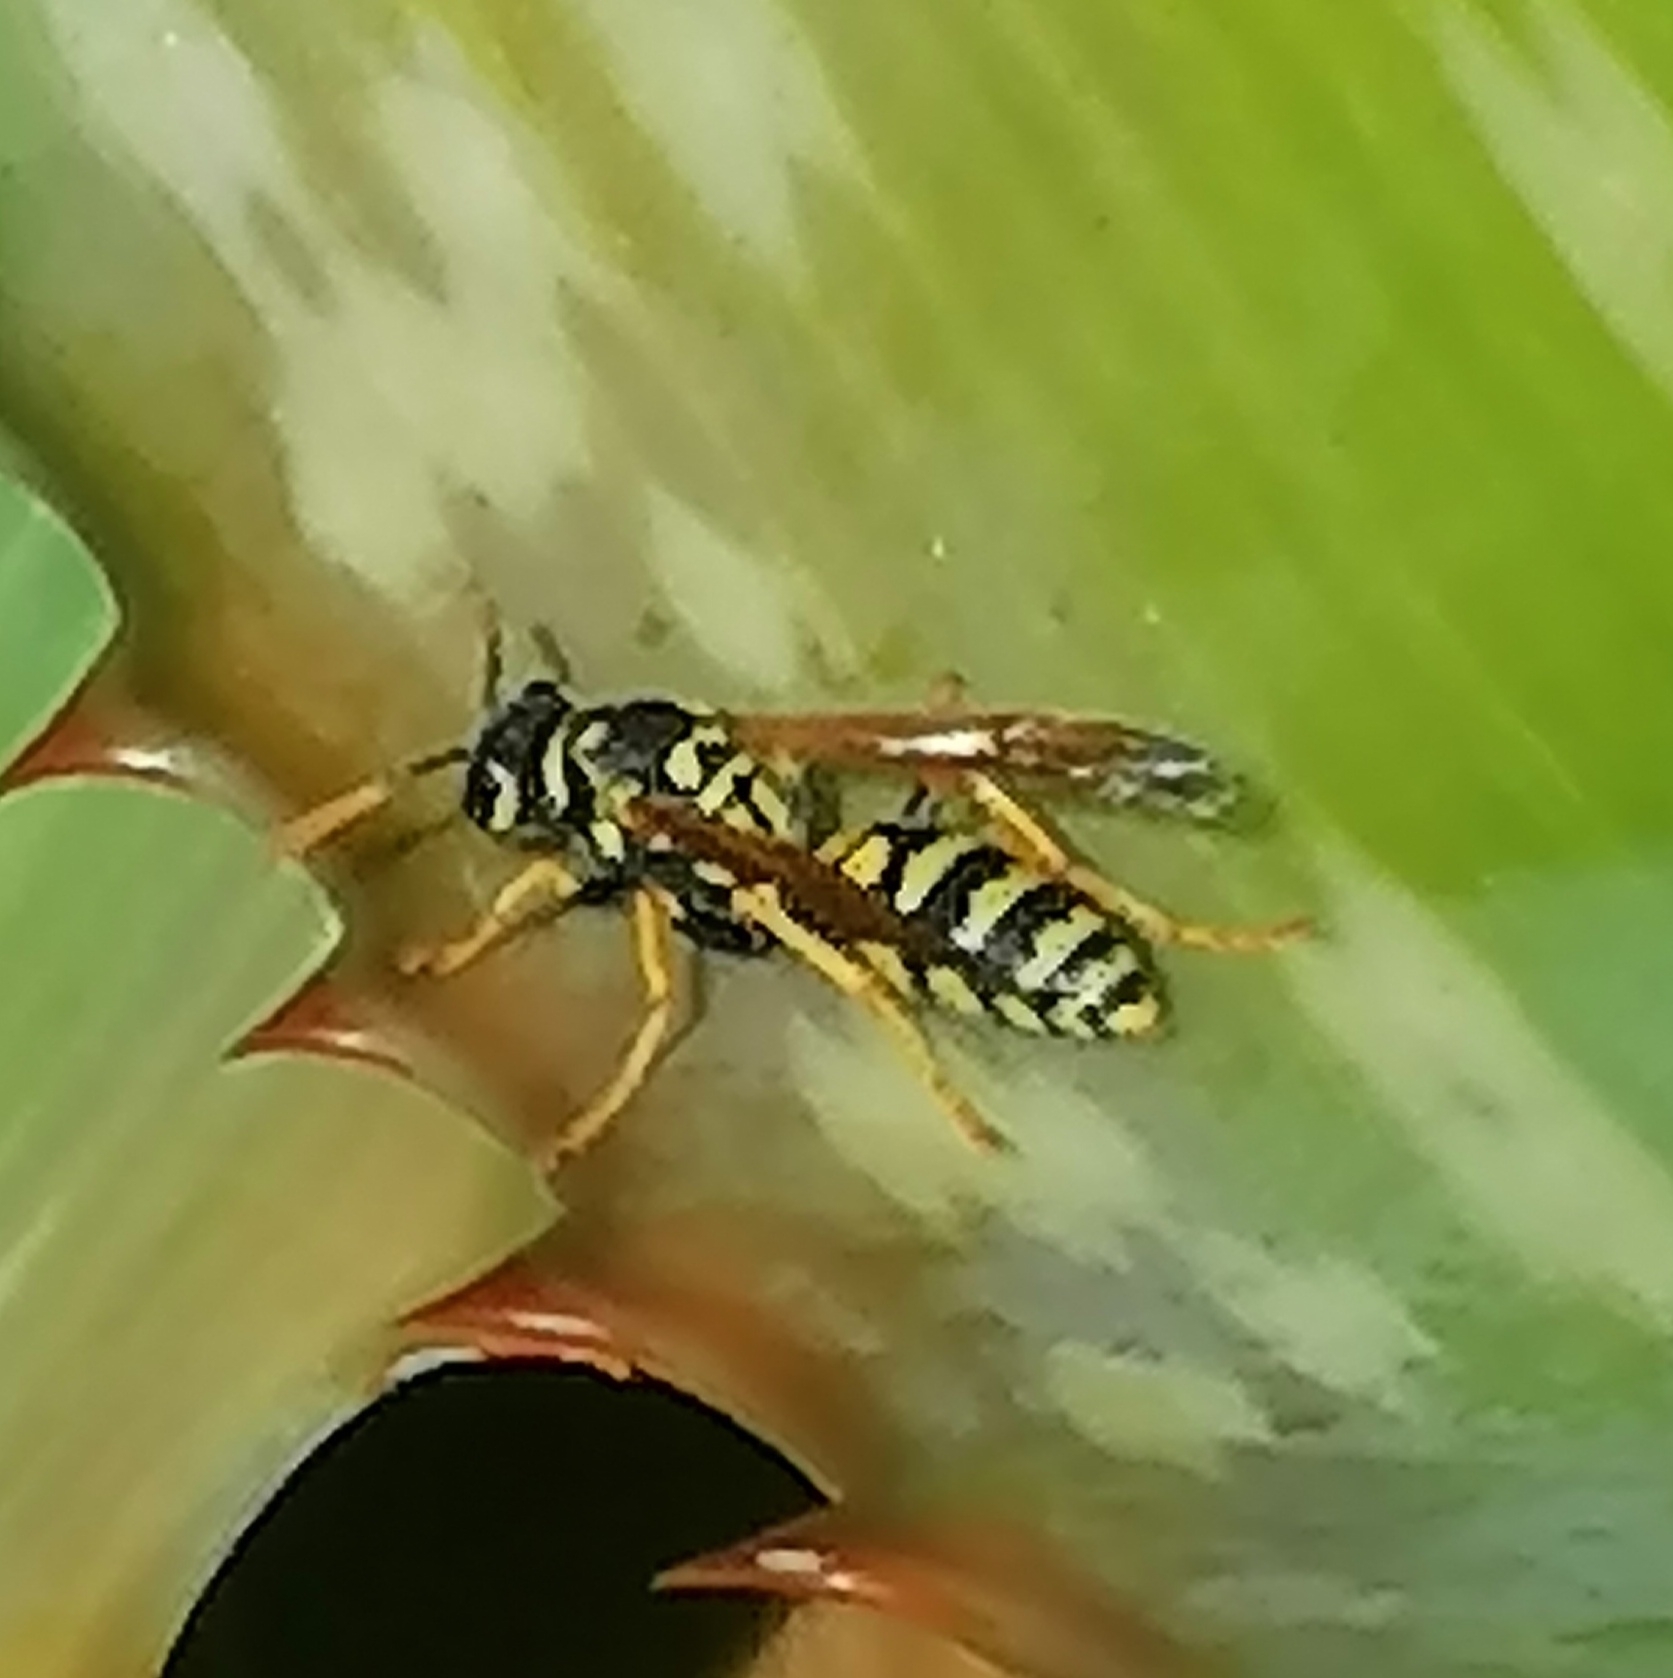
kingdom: Animalia
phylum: Arthropoda
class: Insecta
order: Hymenoptera
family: Eumenidae
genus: Polistes
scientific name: Polistes dominula
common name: Paper wasp
